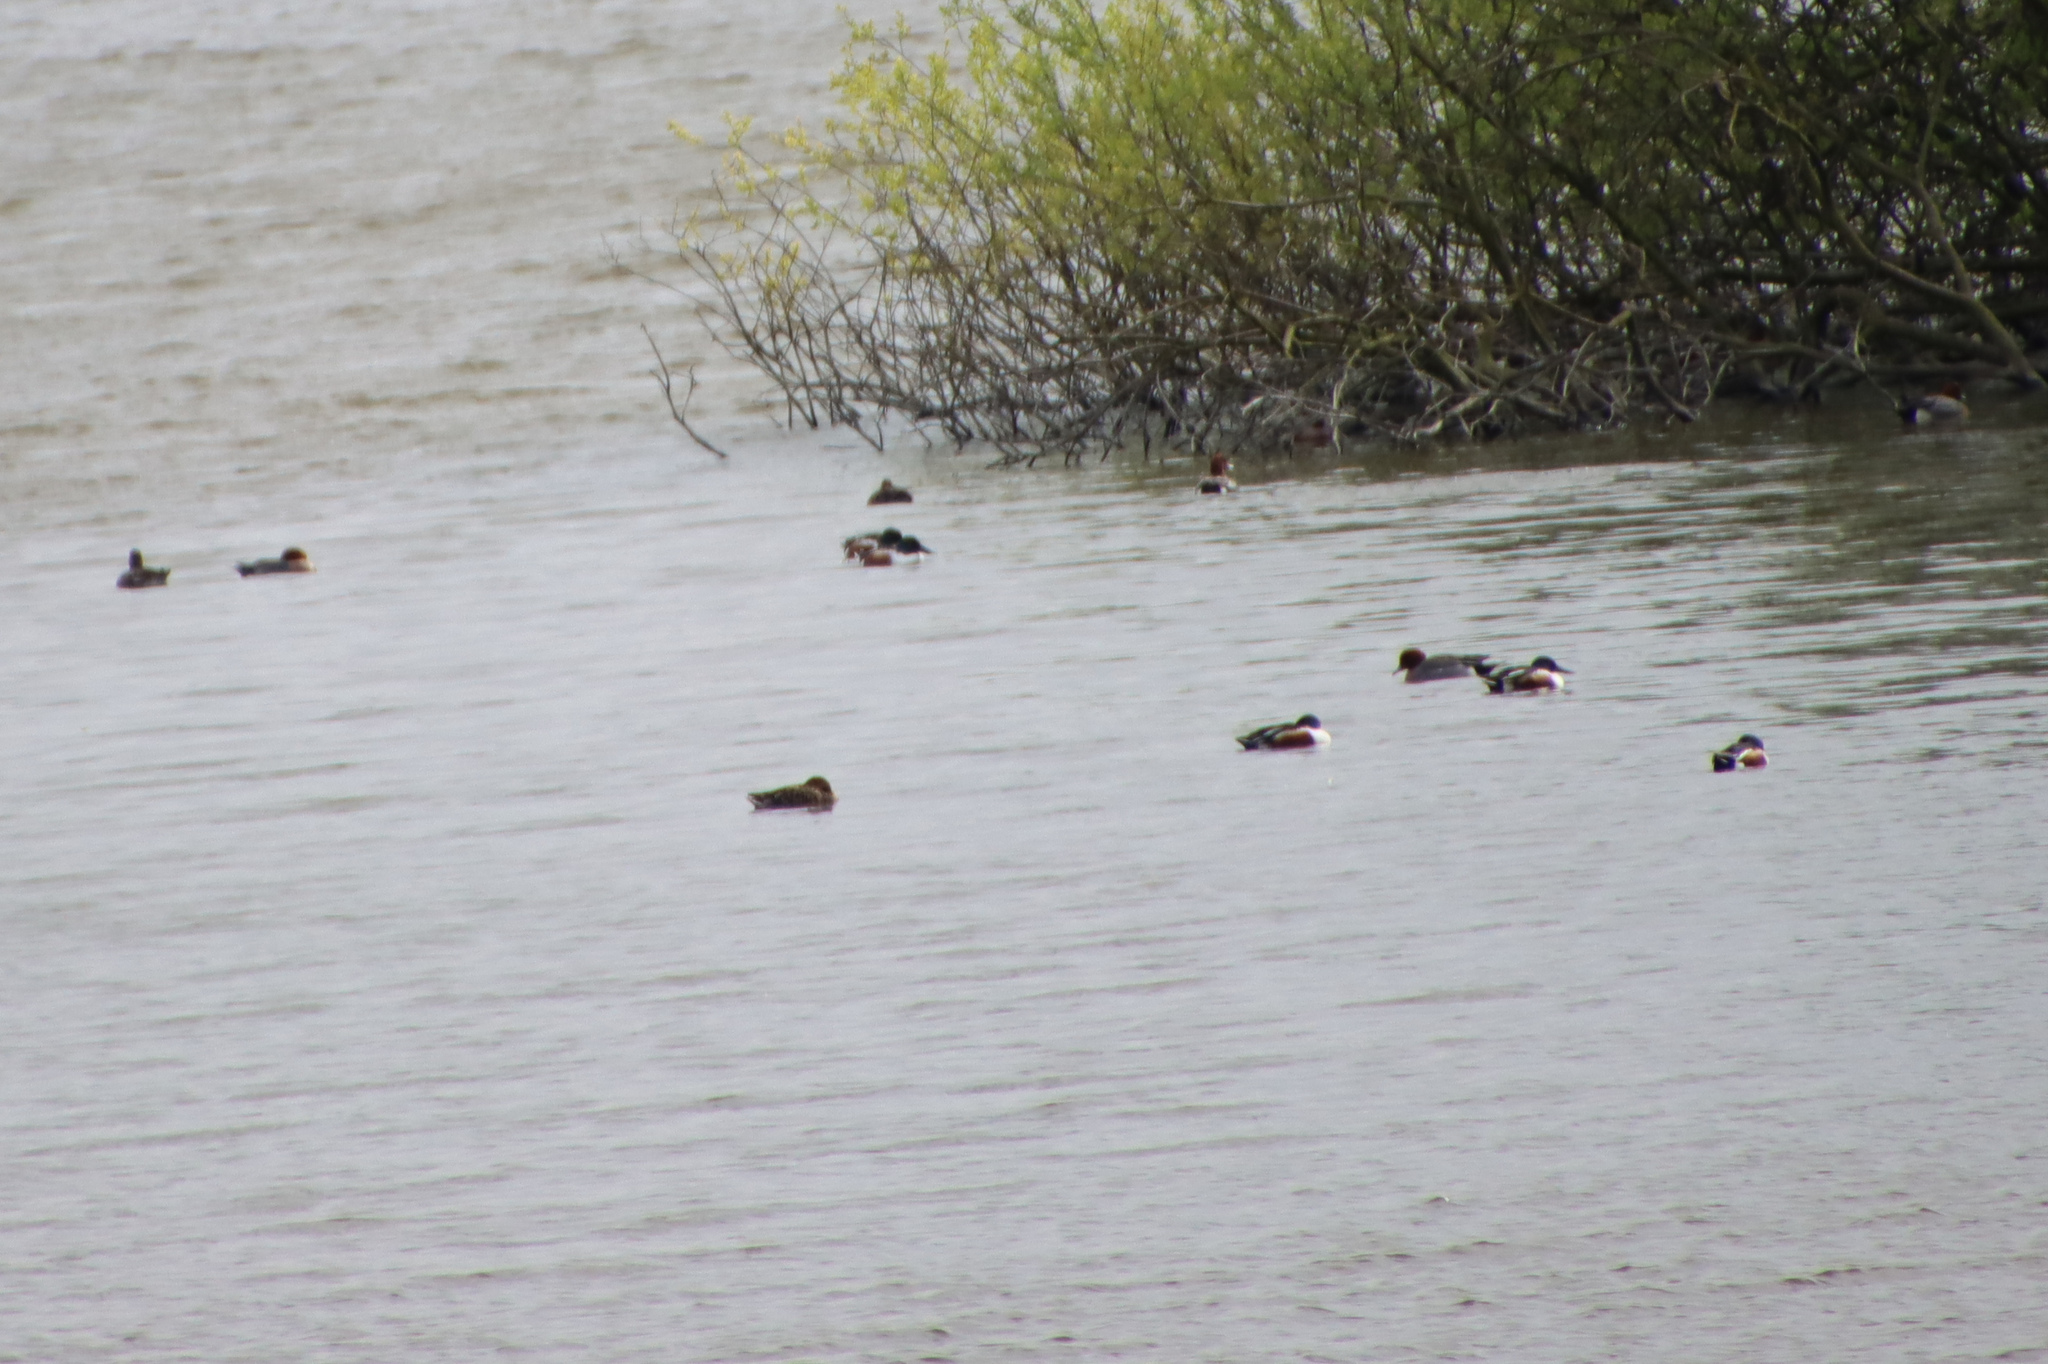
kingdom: Animalia
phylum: Chordata
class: Aves
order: Anseriformes
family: Anatidae
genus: Spatula
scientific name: Spatula clypeata
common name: Northern shoveler
